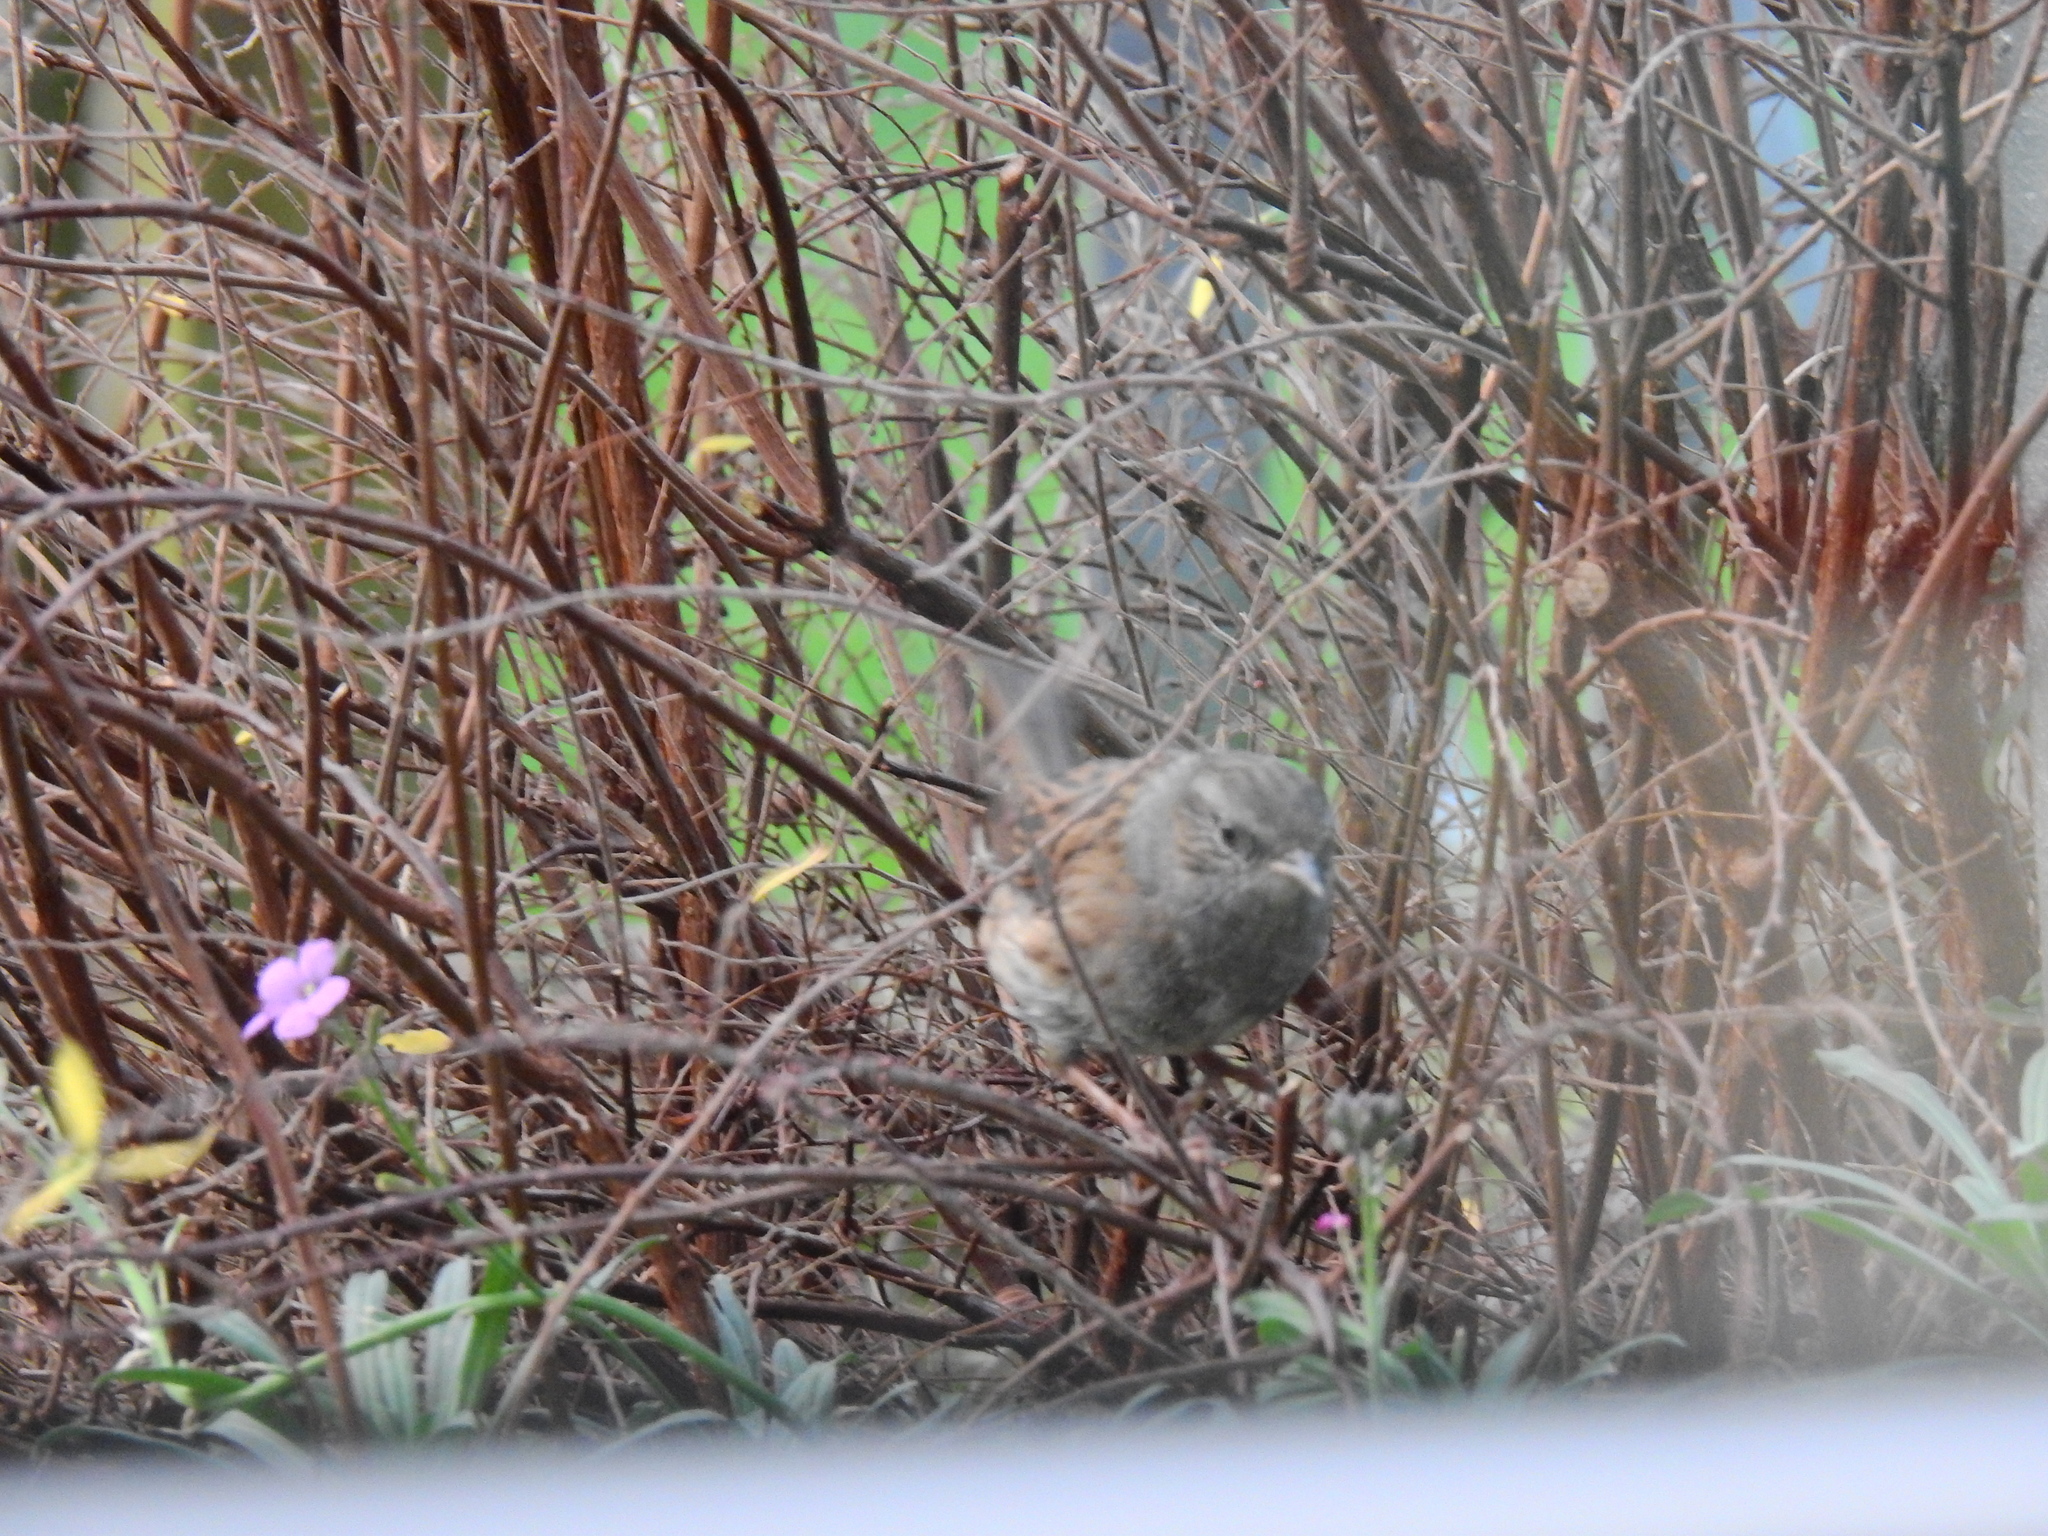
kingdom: Animalia
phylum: Chordata
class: Aves
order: Passeriformes
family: Prunellidae
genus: Prunella
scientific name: Prunella modularis
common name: Dunnock
